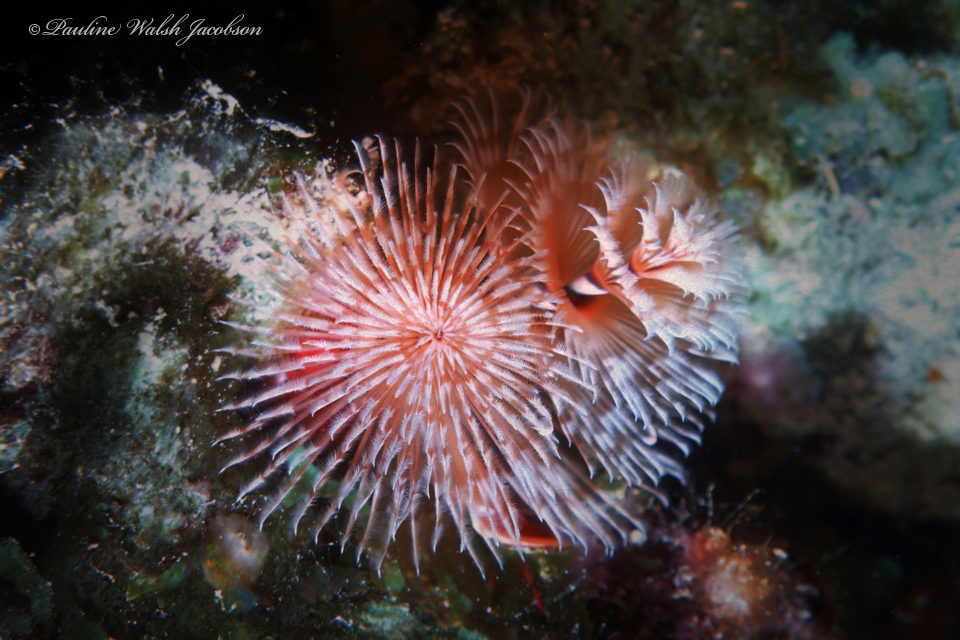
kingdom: Animalia
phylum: Annelida
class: Polychaeta
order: Sabellida
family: Serpulidae
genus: Spirobranchus
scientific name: Spirobranchus giganteus
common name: Christmas tree worm
